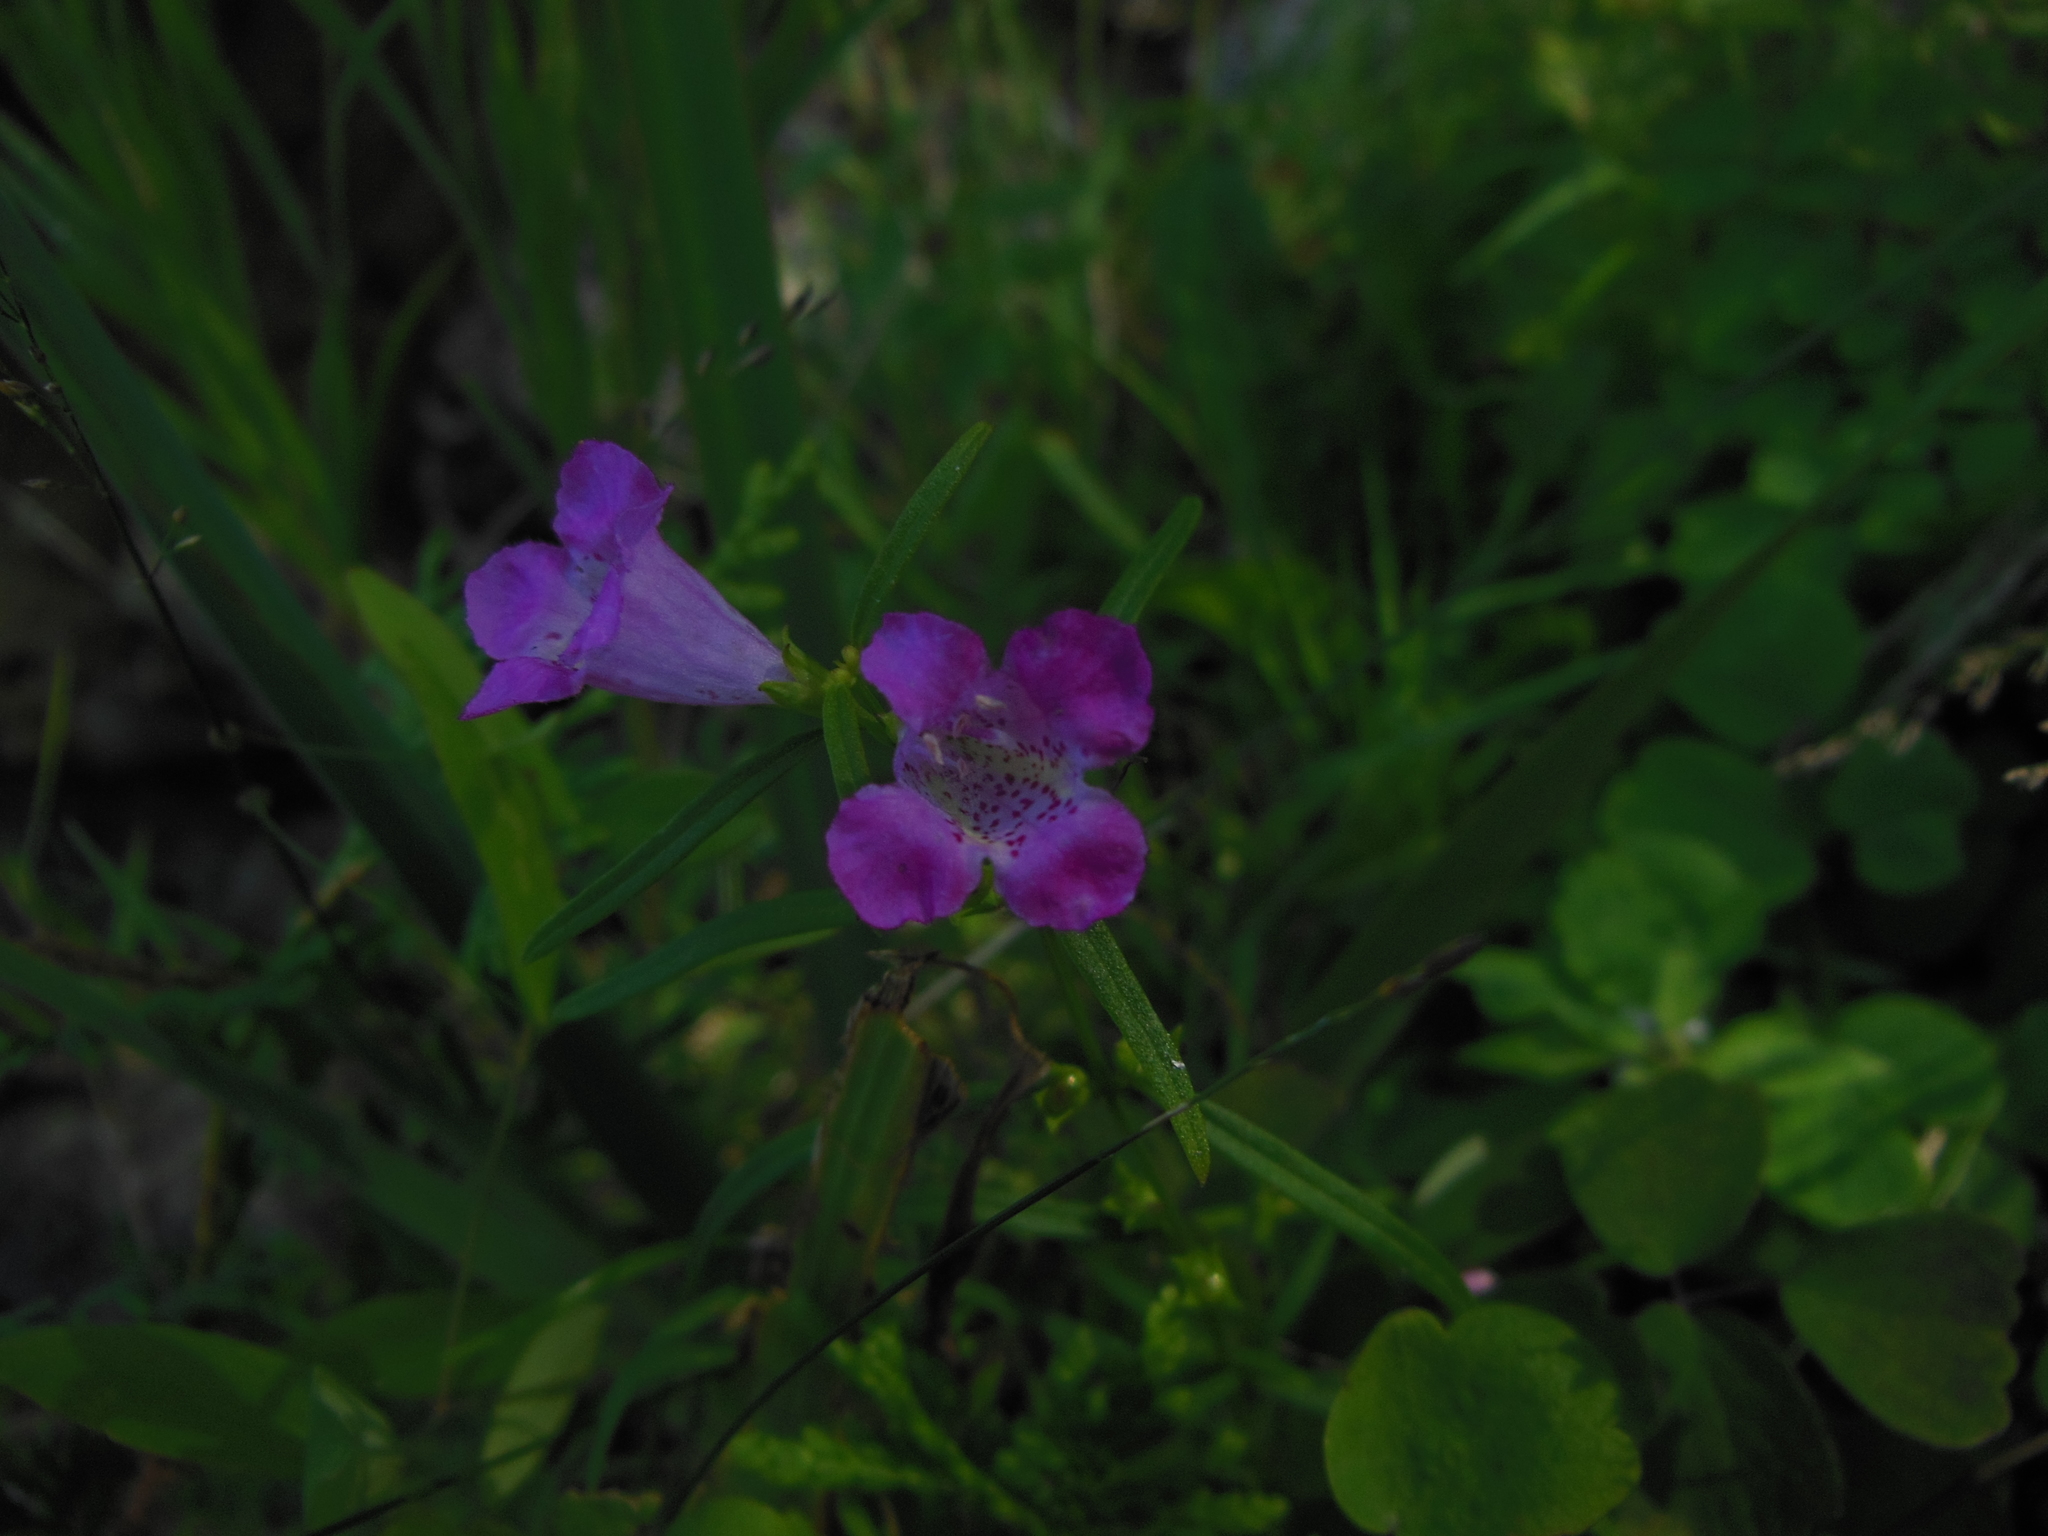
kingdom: Plantae
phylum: Tracheophyta
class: Magnoliopsida
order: Lamiales
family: Orobanchaceae
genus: Agalinis
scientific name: Agalinis purpurea
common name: Purple false foxglove
